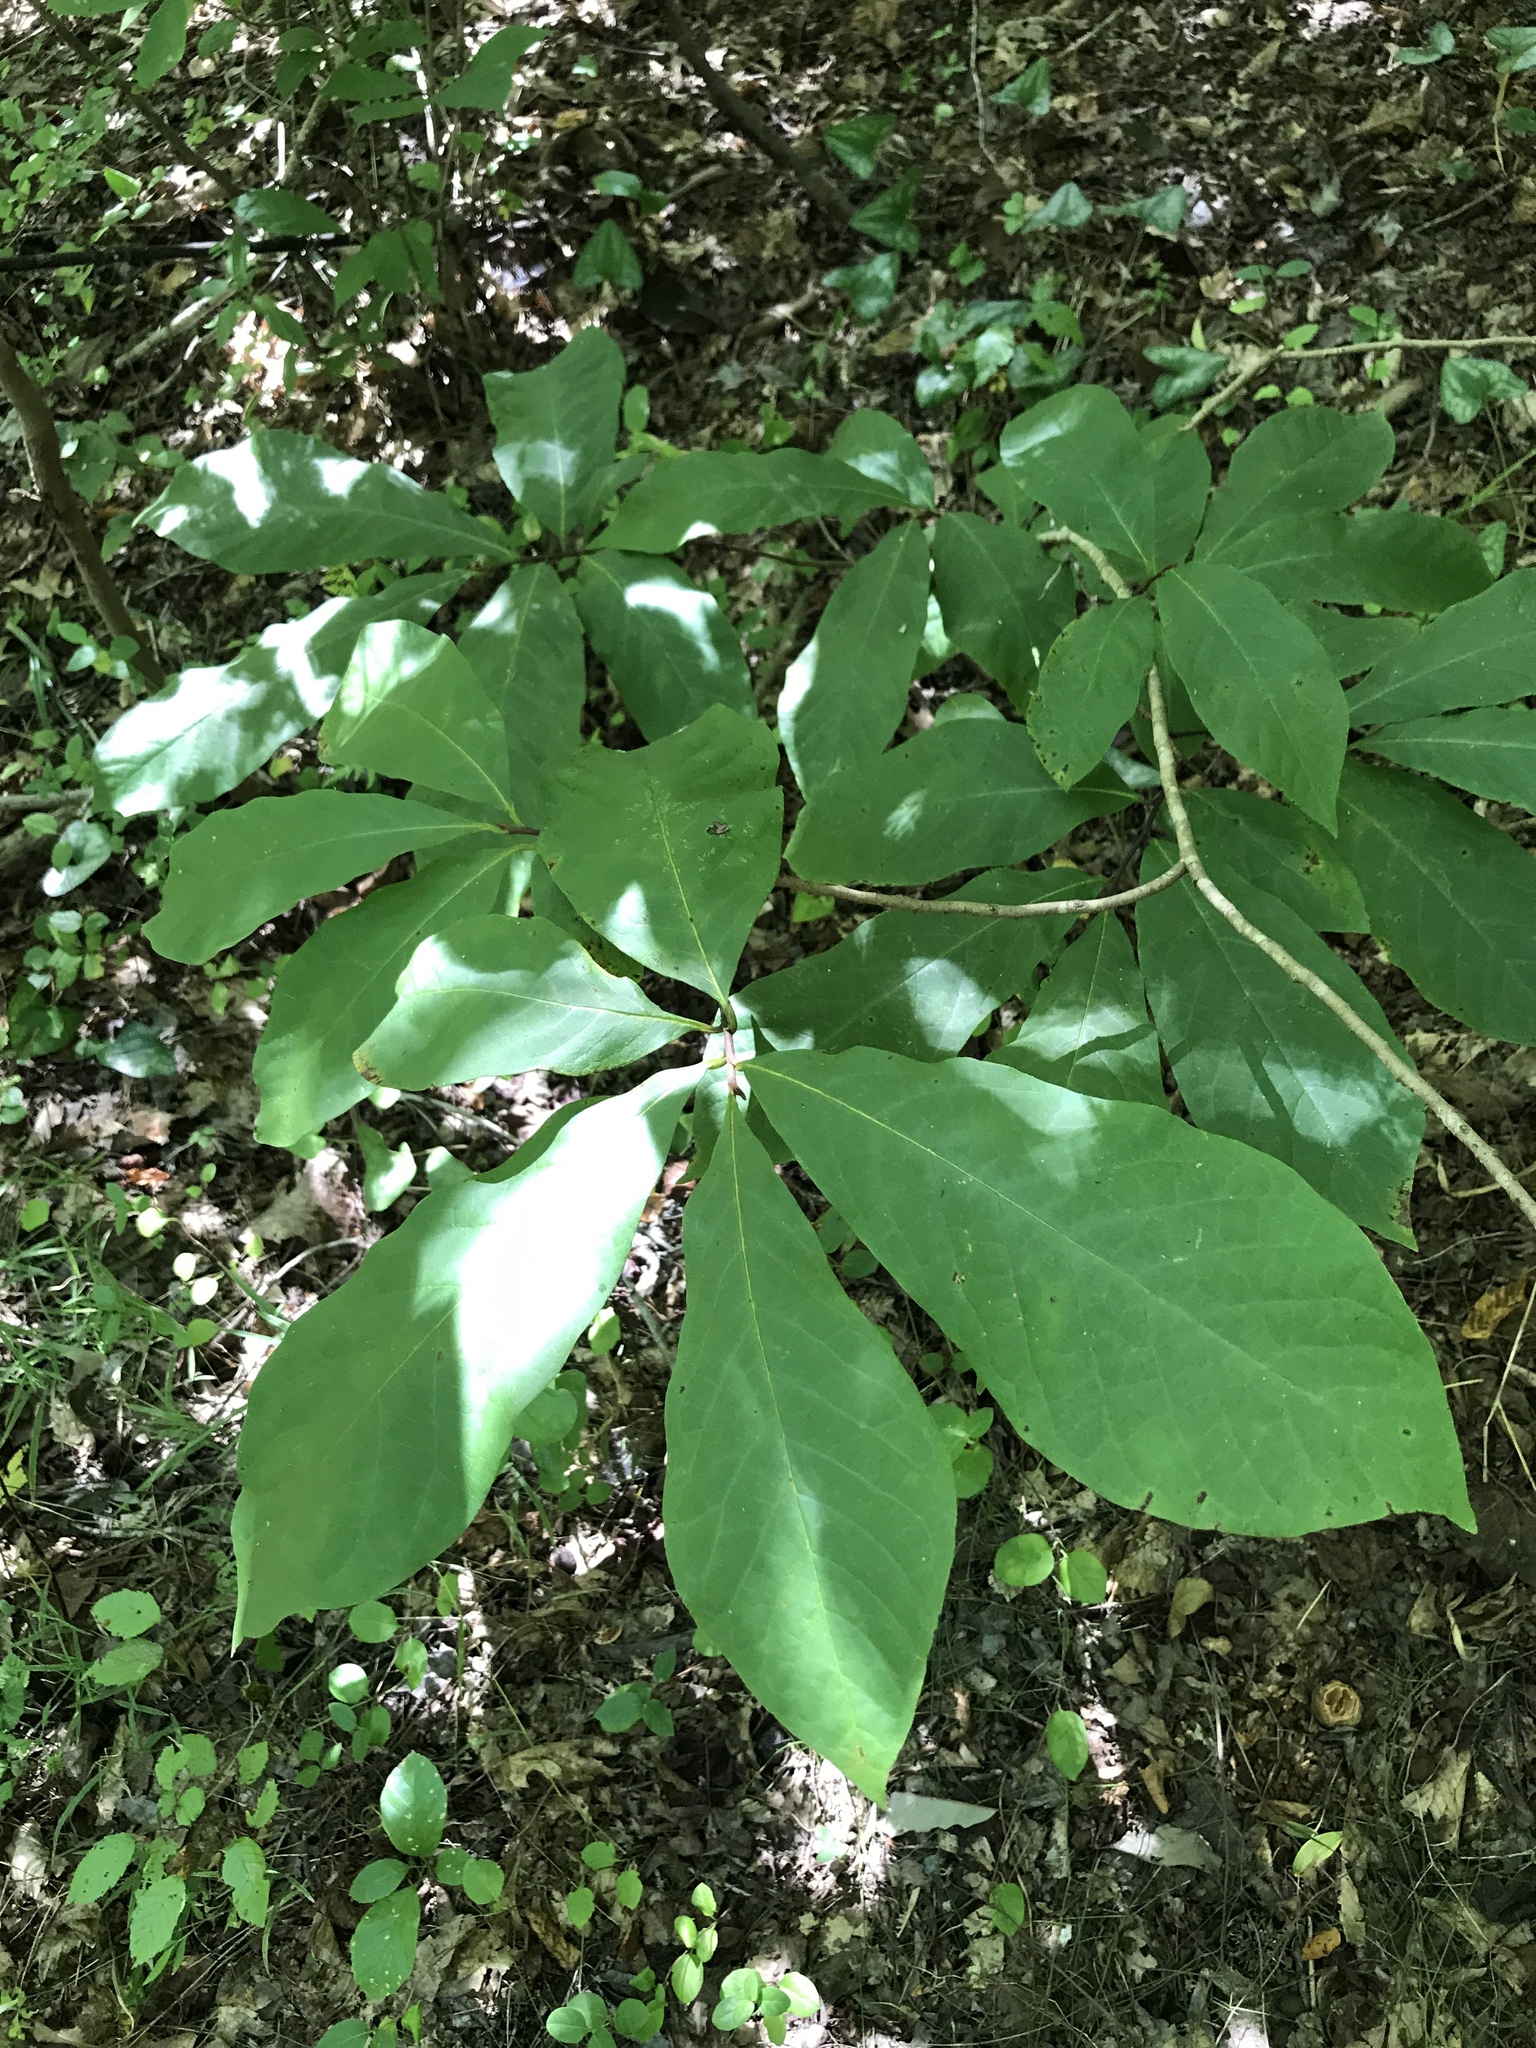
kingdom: Plantae
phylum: Tracheophyta
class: Magnoliopsida
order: Magnoliales
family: Annonaceae
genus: Asimina
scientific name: Asimina triloba
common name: Dog-banana
